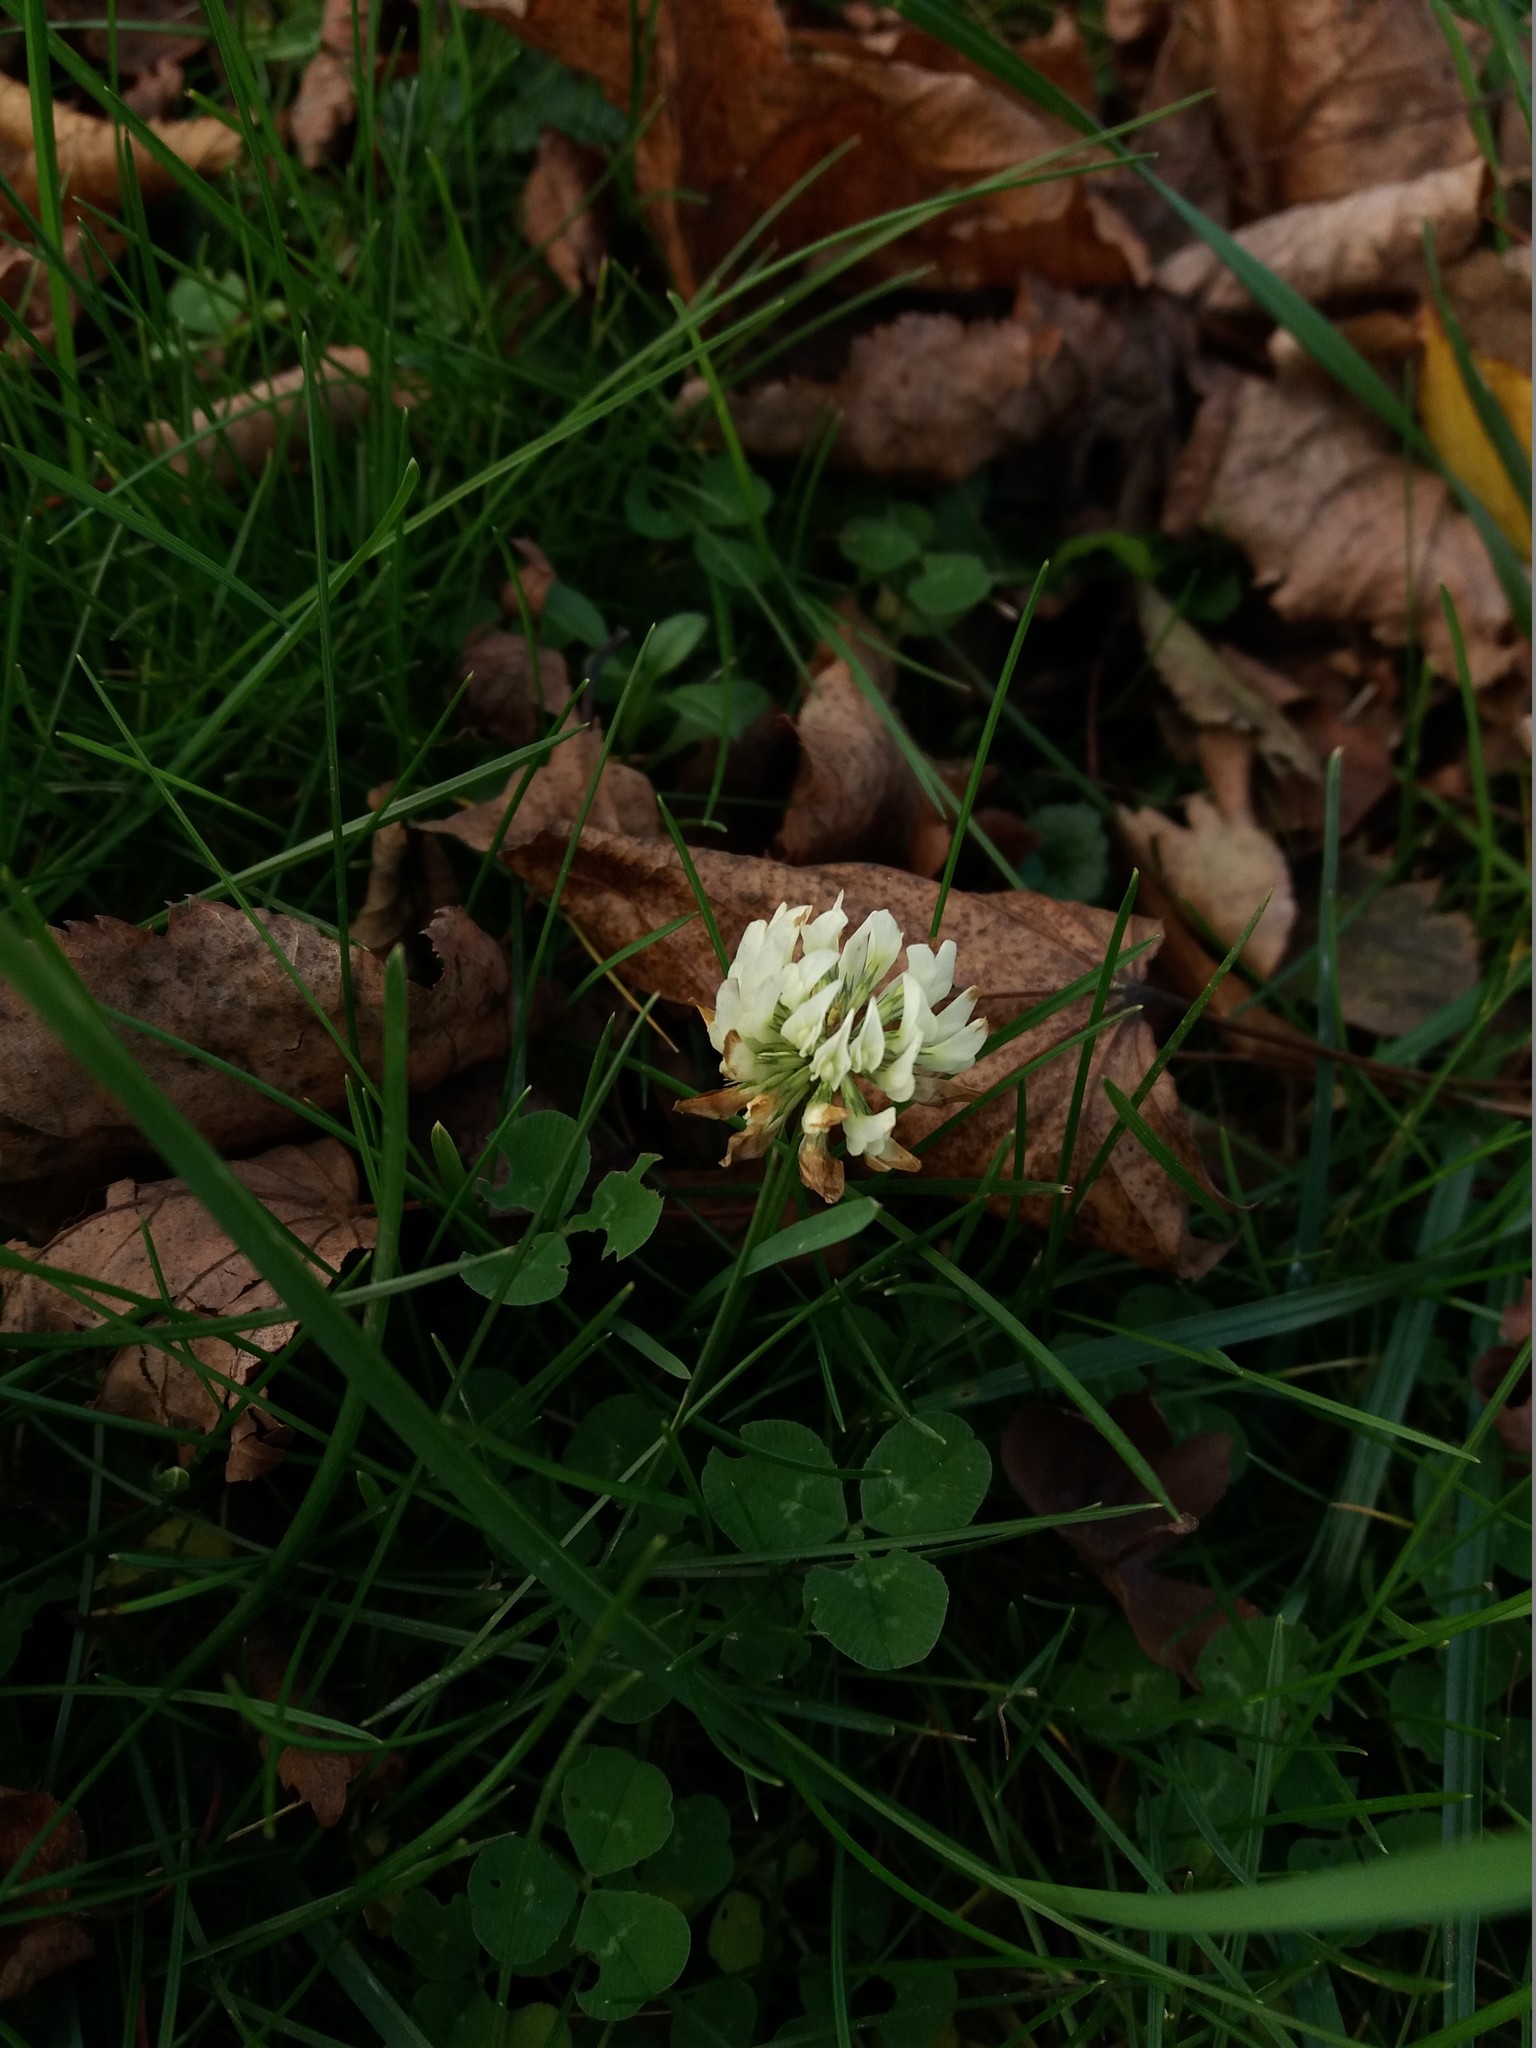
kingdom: Plantae
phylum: Tracheophyta
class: Magnoliopsida
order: Fabales
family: Fabaceae
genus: Trifolium
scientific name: Trifolium repens
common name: White clover
